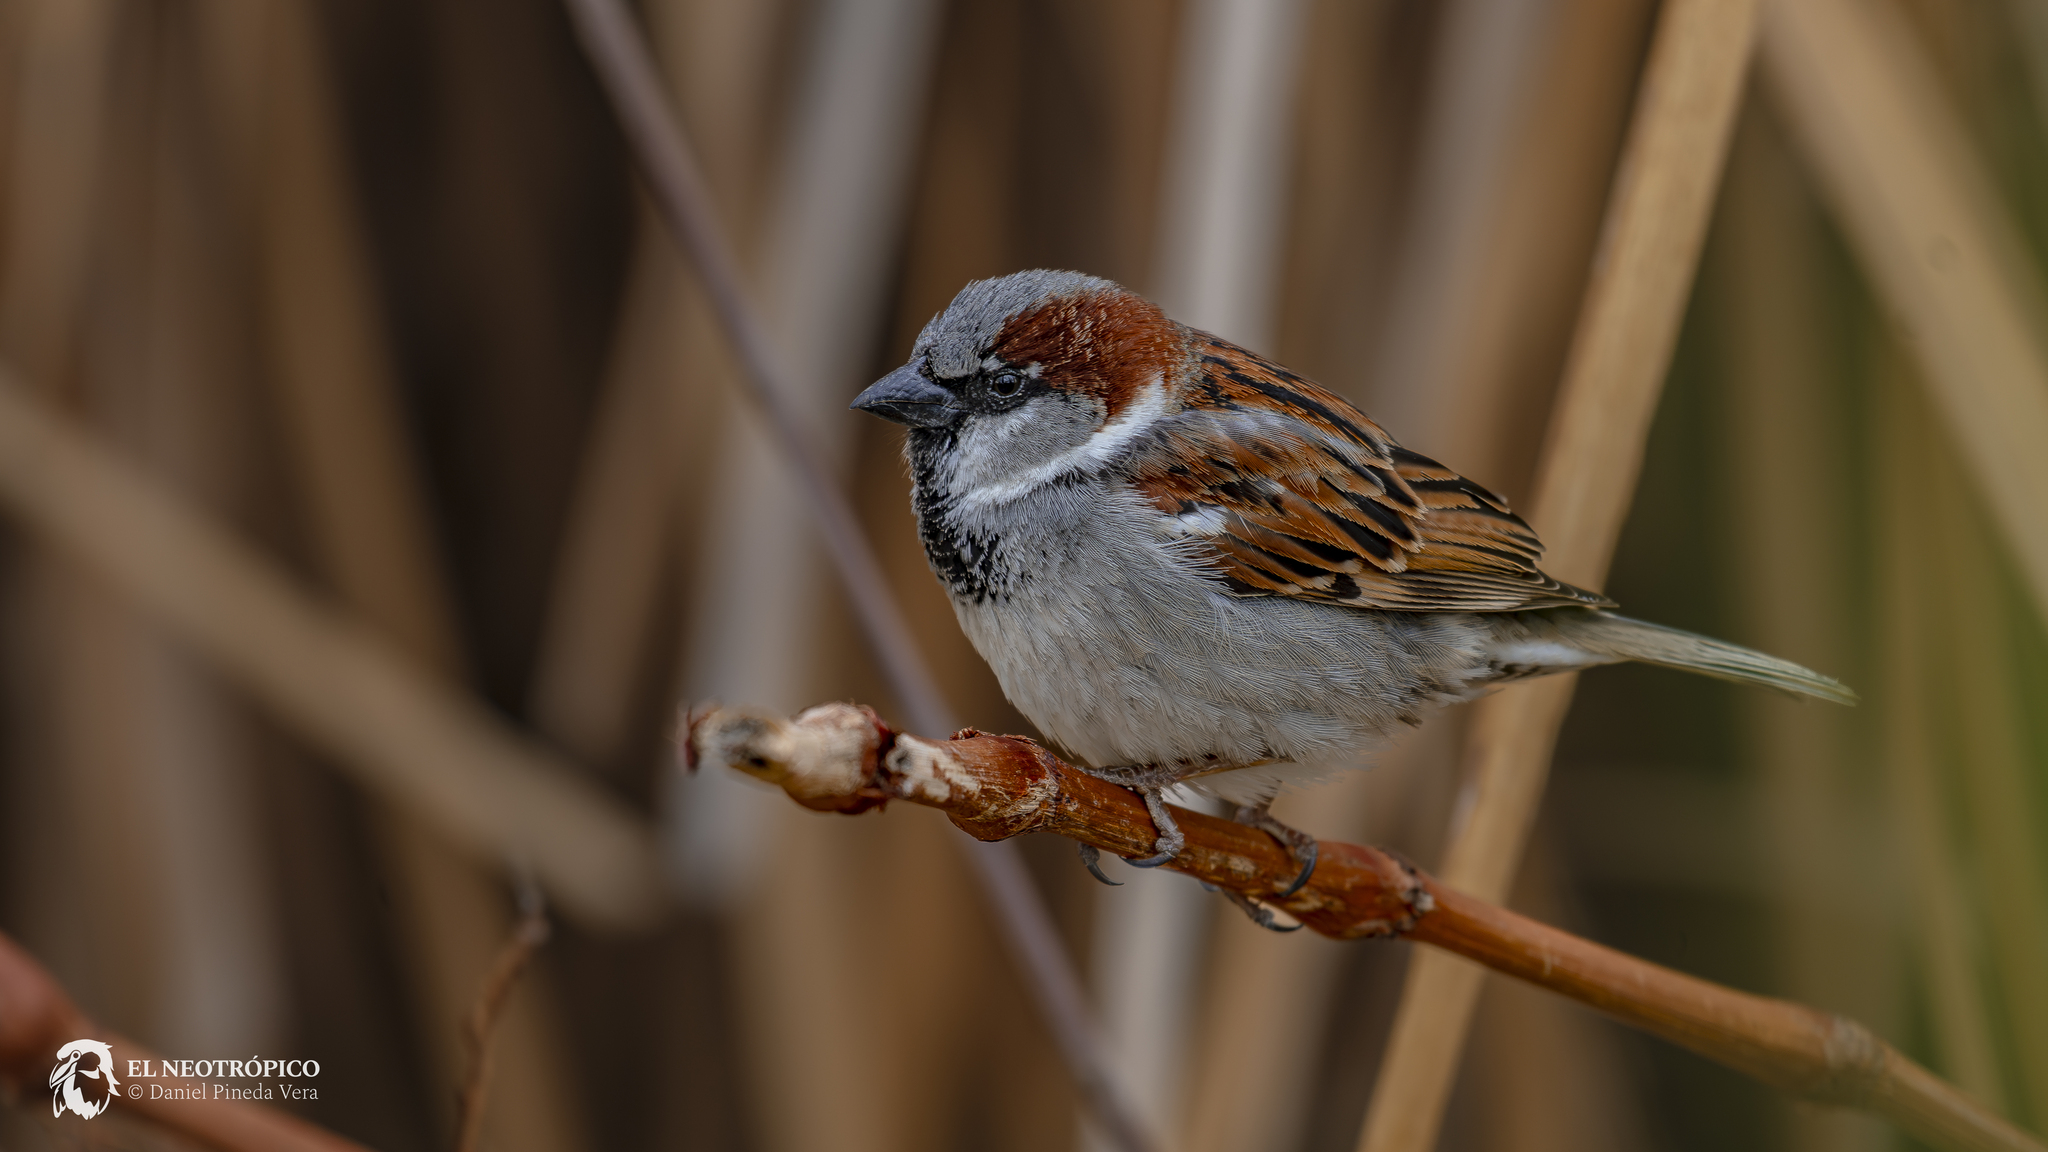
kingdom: Animalia
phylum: Chordata
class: Aves
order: Passeriformes
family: Passeridae
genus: Passer
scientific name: Passer domesticus
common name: House sparrow
